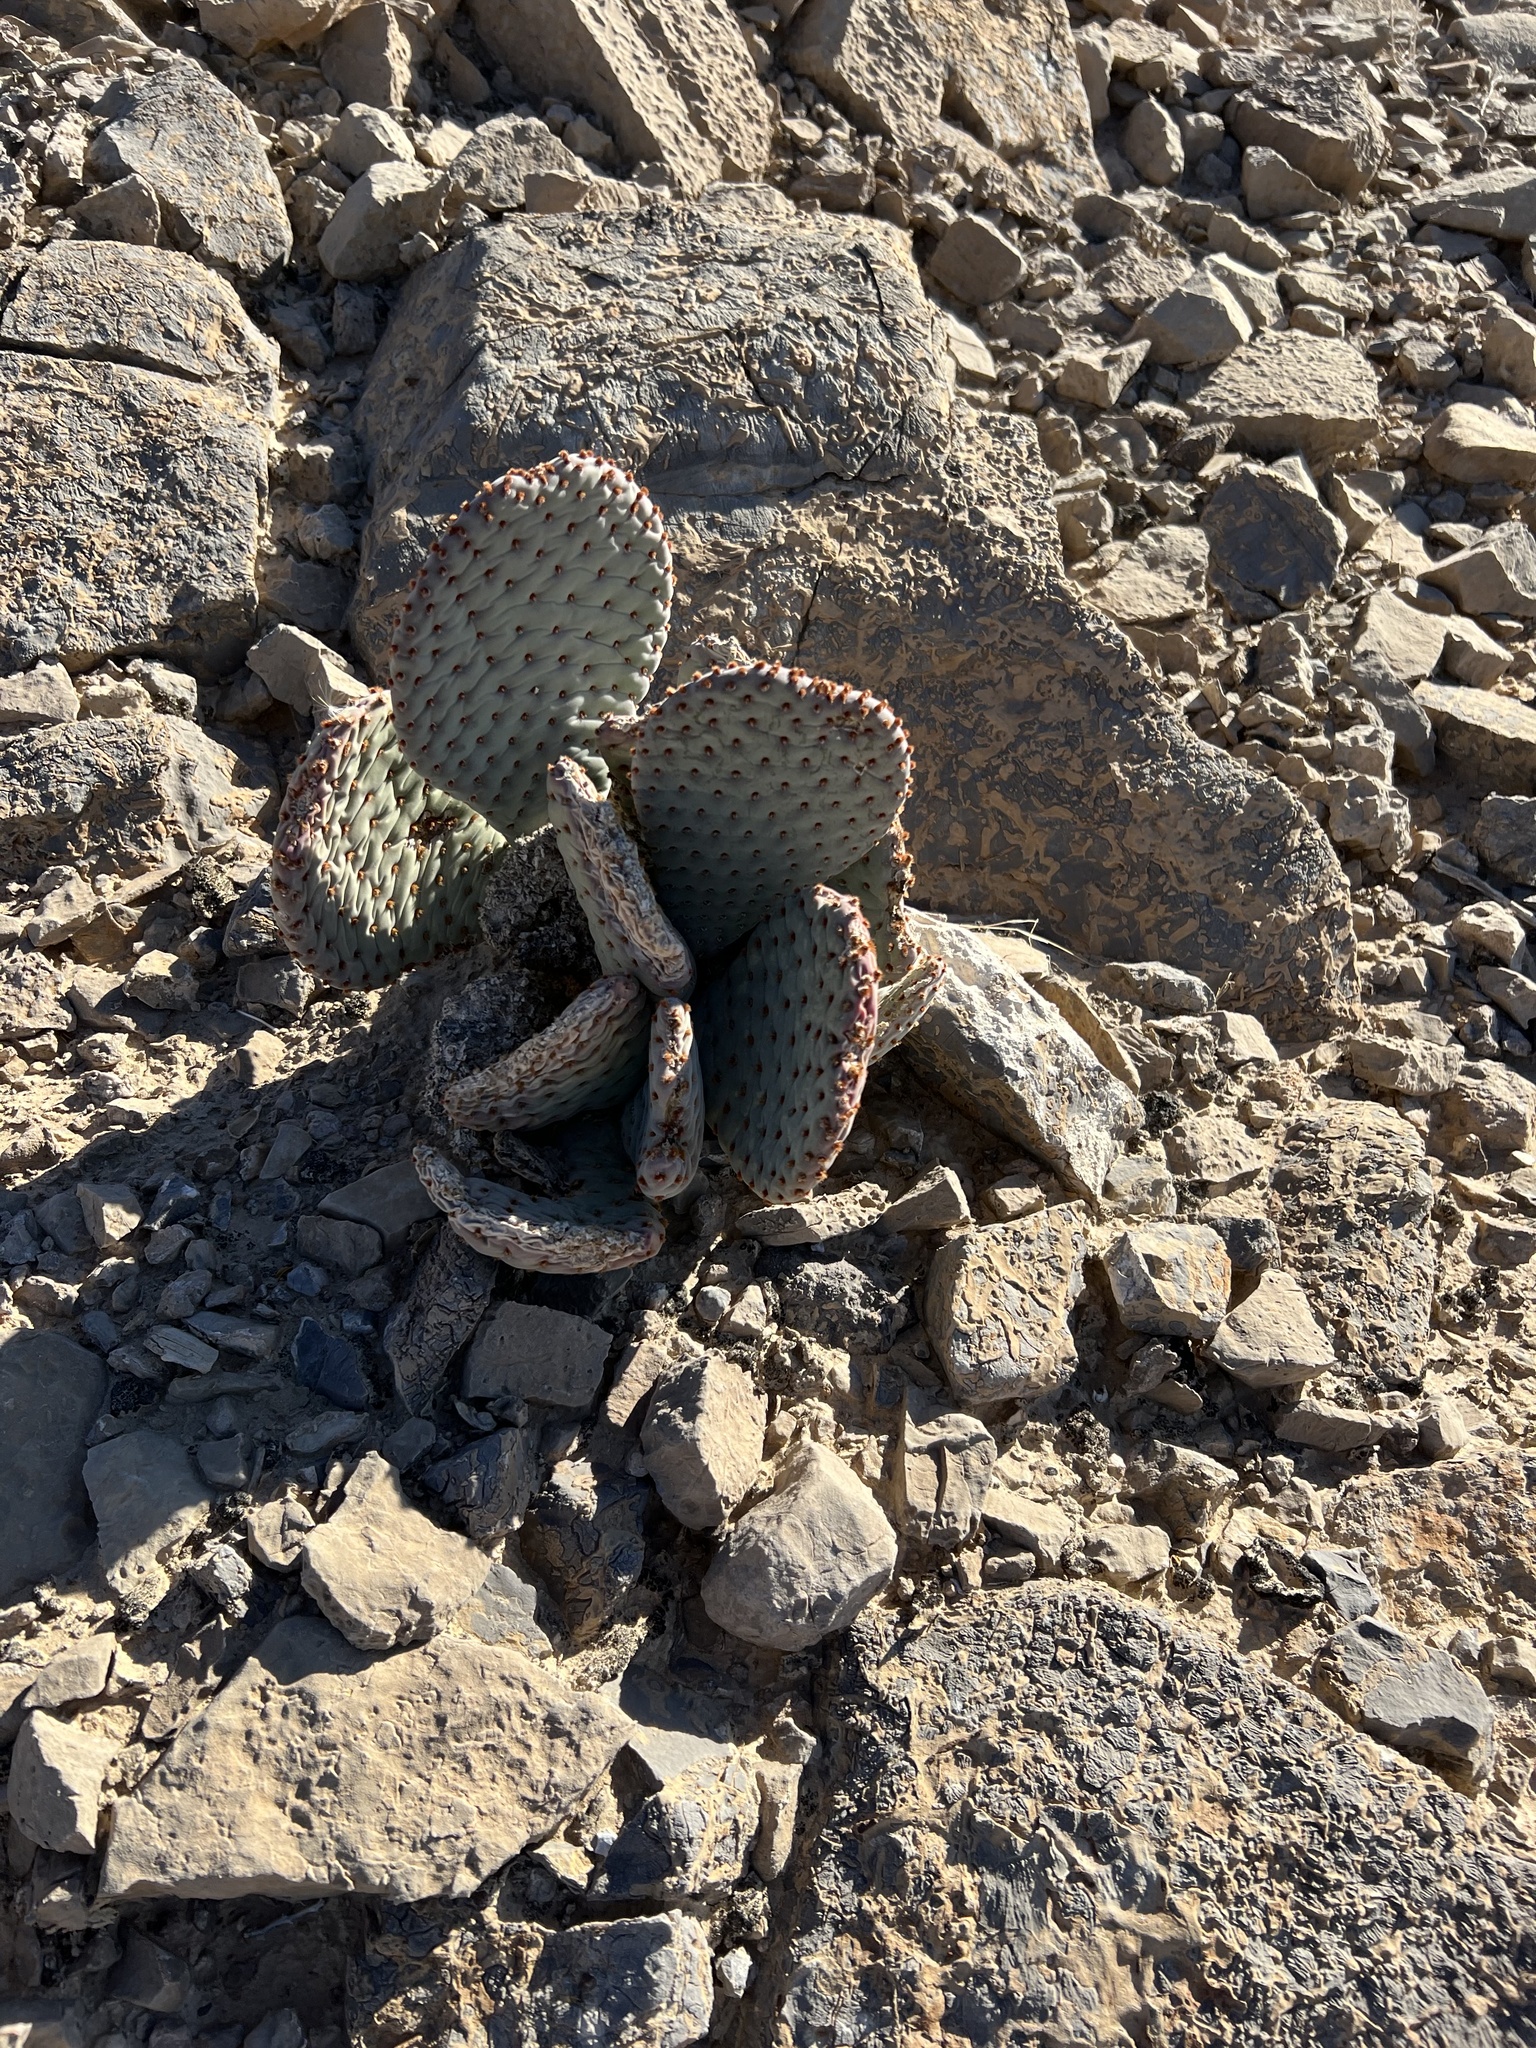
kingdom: Plantae
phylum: Tracheophyta
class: Magnoliopsida
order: Caryophyllales
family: Cactaceae
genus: Opuntia
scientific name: Opuntia basilaris
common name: Beavertail prickly-pear
